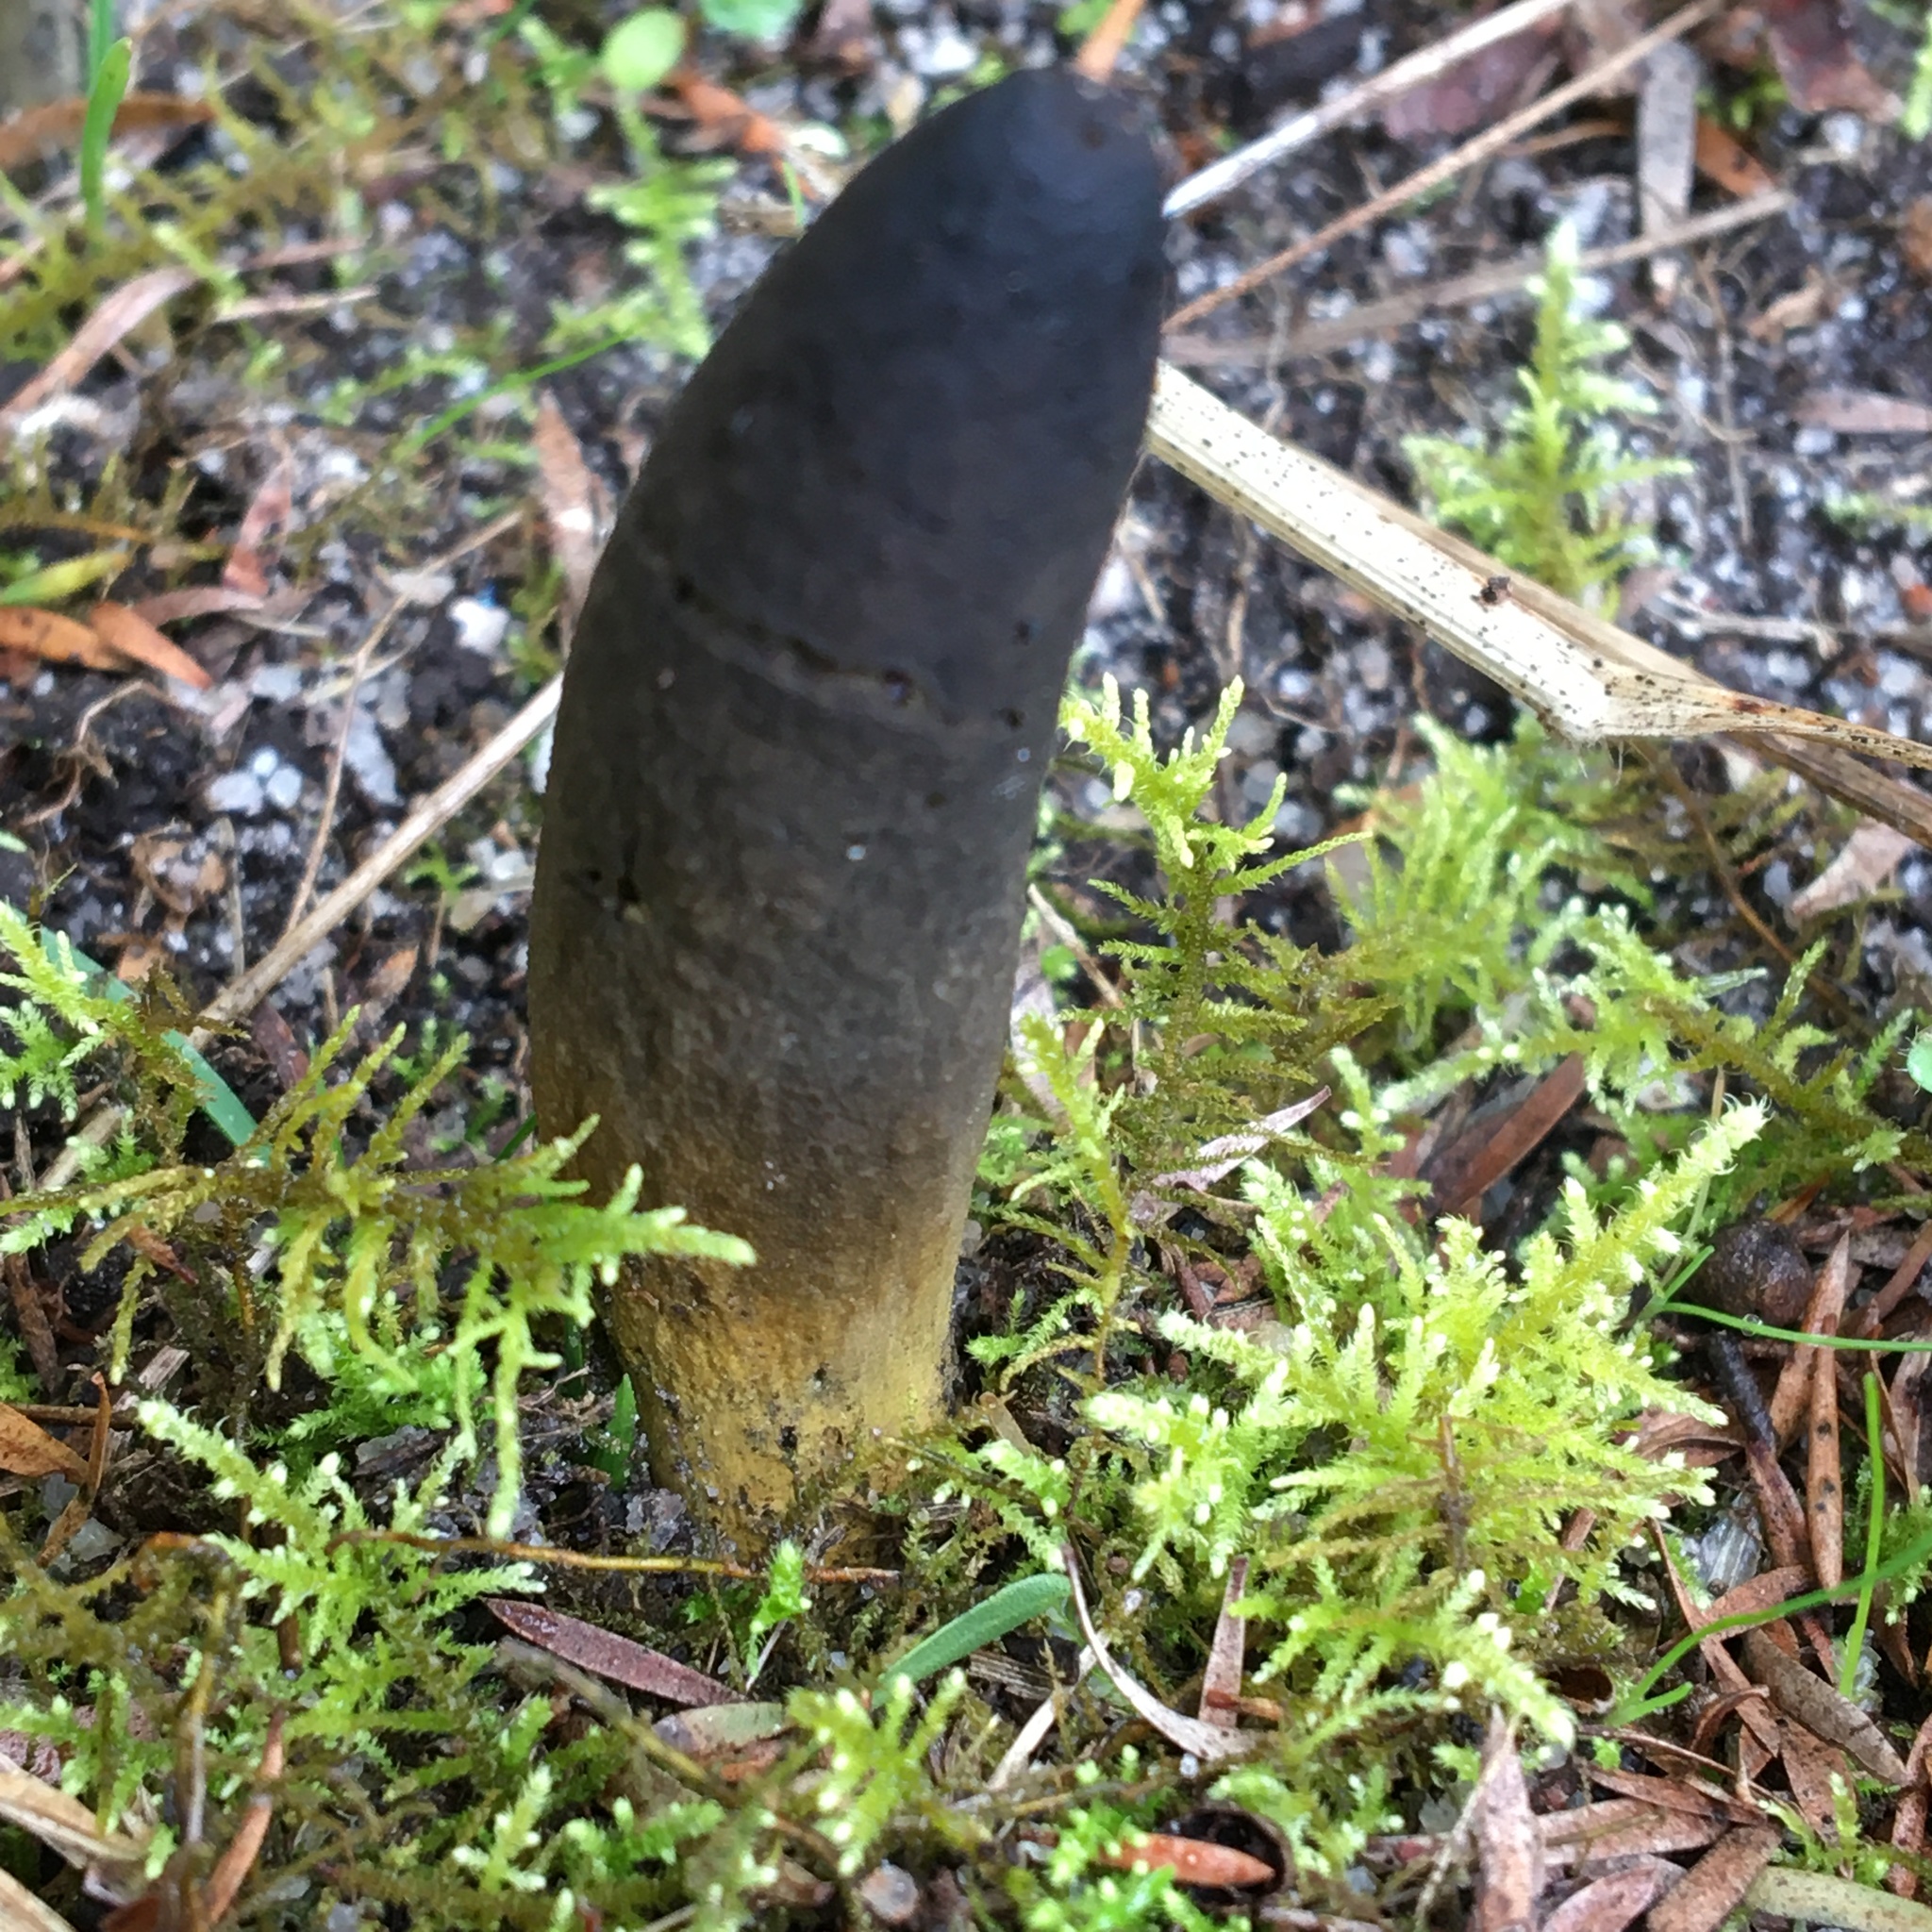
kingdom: Fungi
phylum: Ascomycota
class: Sordariomycetes
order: Hypocreales
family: Clavicipitaceae
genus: Drechmeria
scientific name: Drechmeria gunnii
